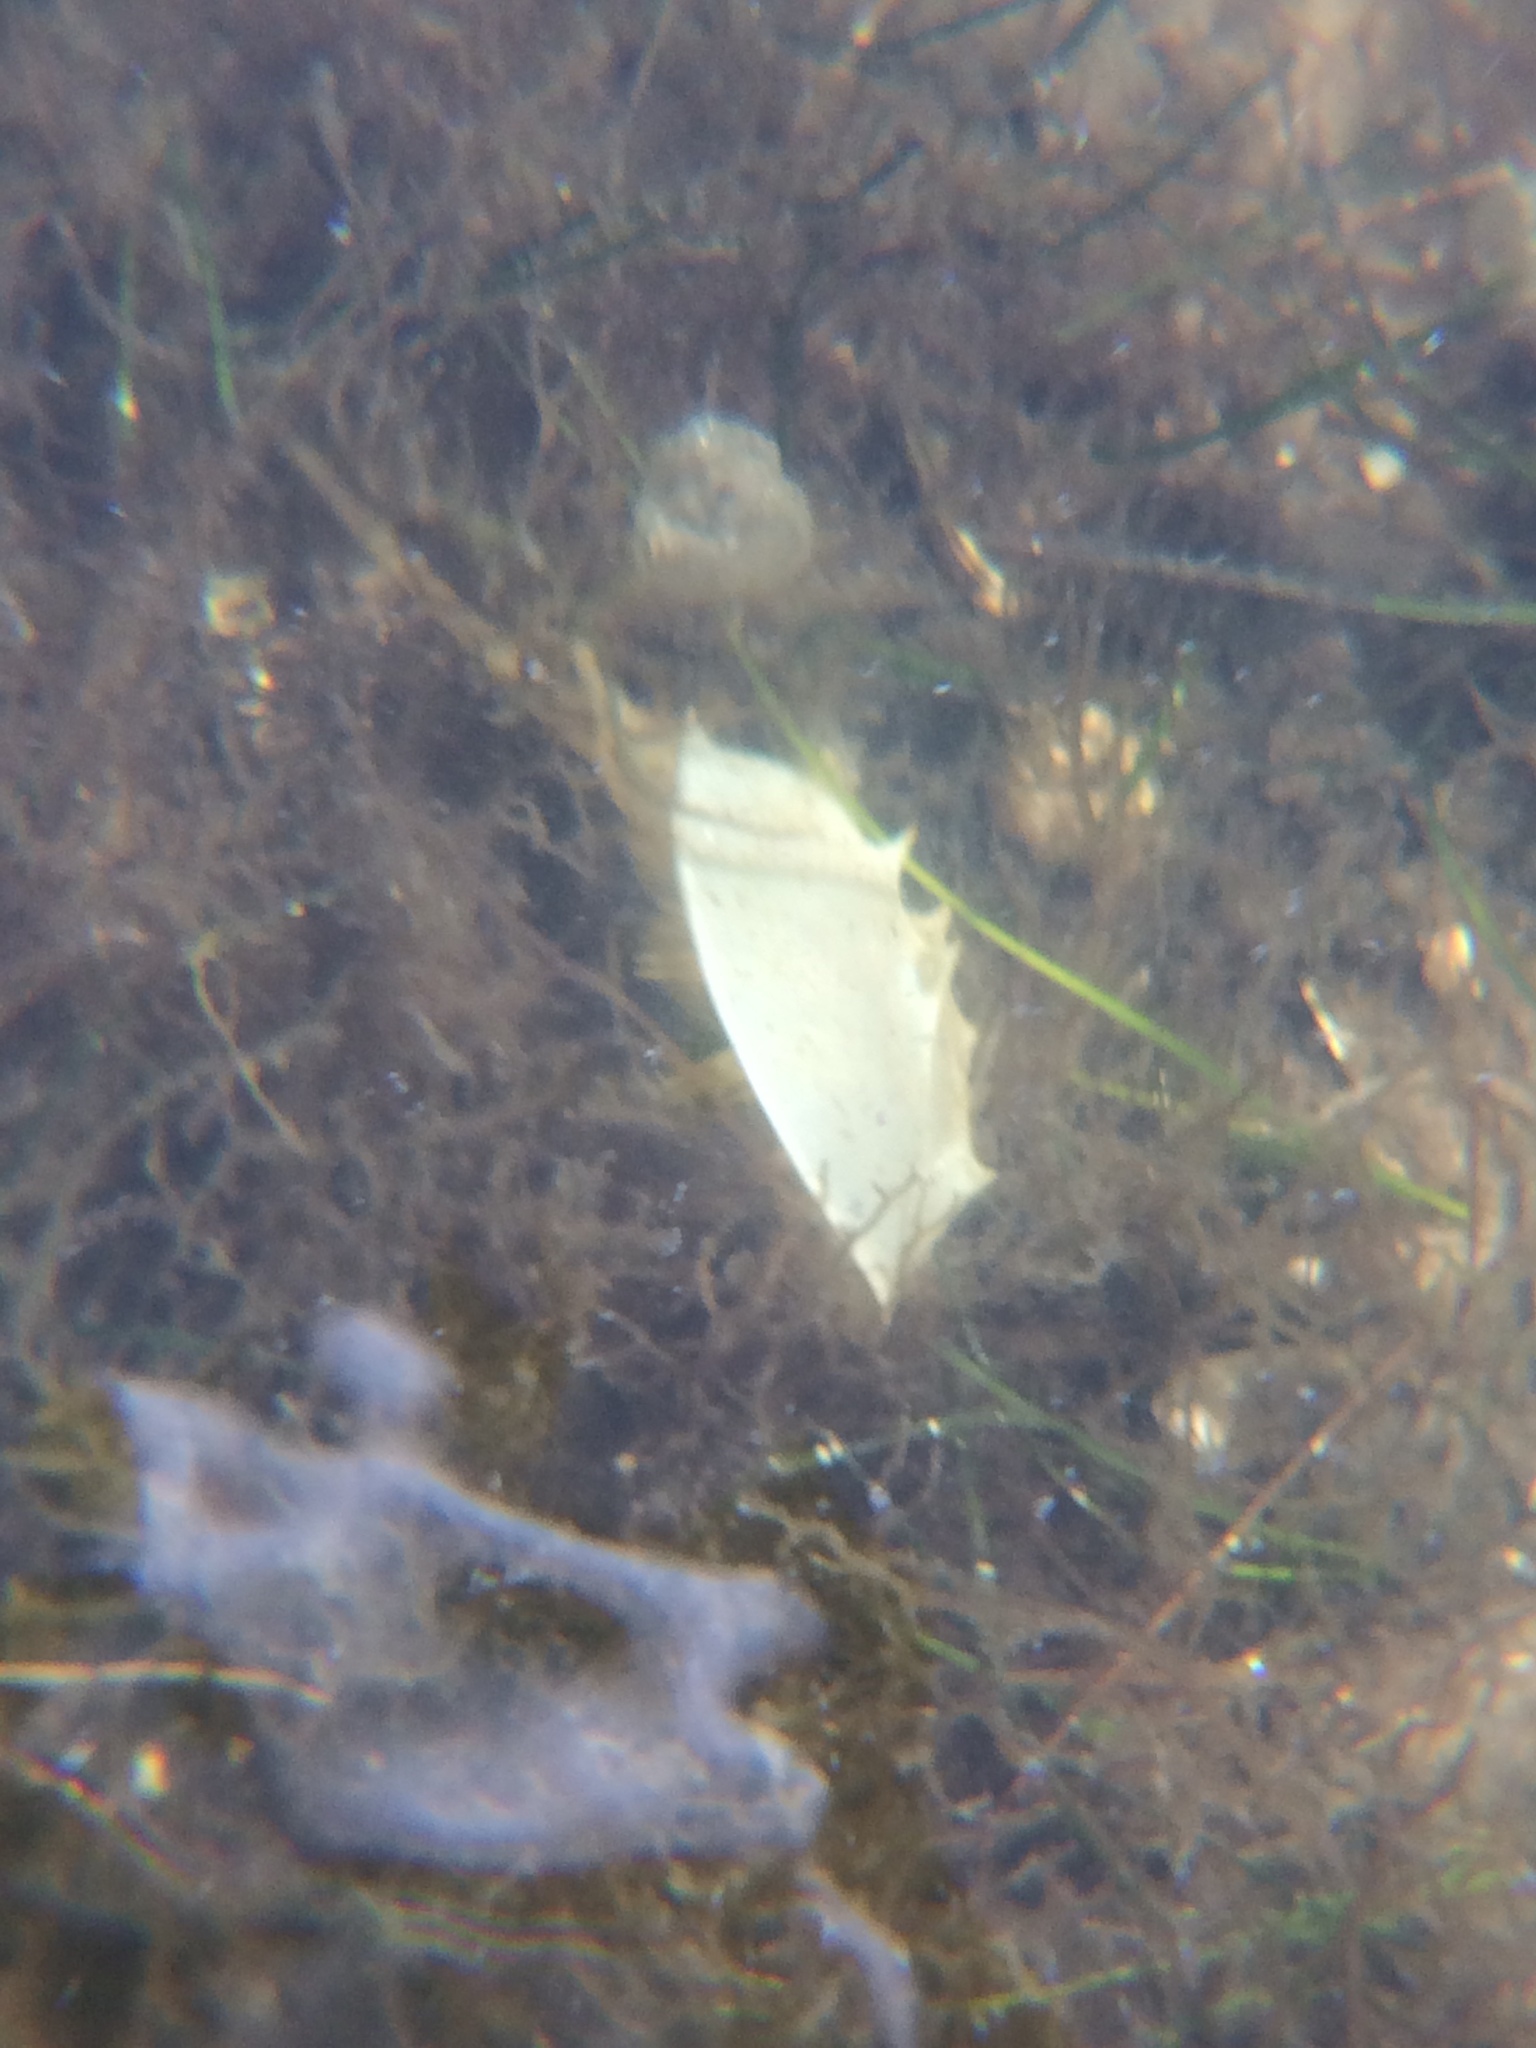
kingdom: Animalia
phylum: Arthropoda
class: Merostomata
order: Xiphosurida
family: Limulidae
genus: Limulus
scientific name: Limulus polyphemus
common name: Horseshoe crab
